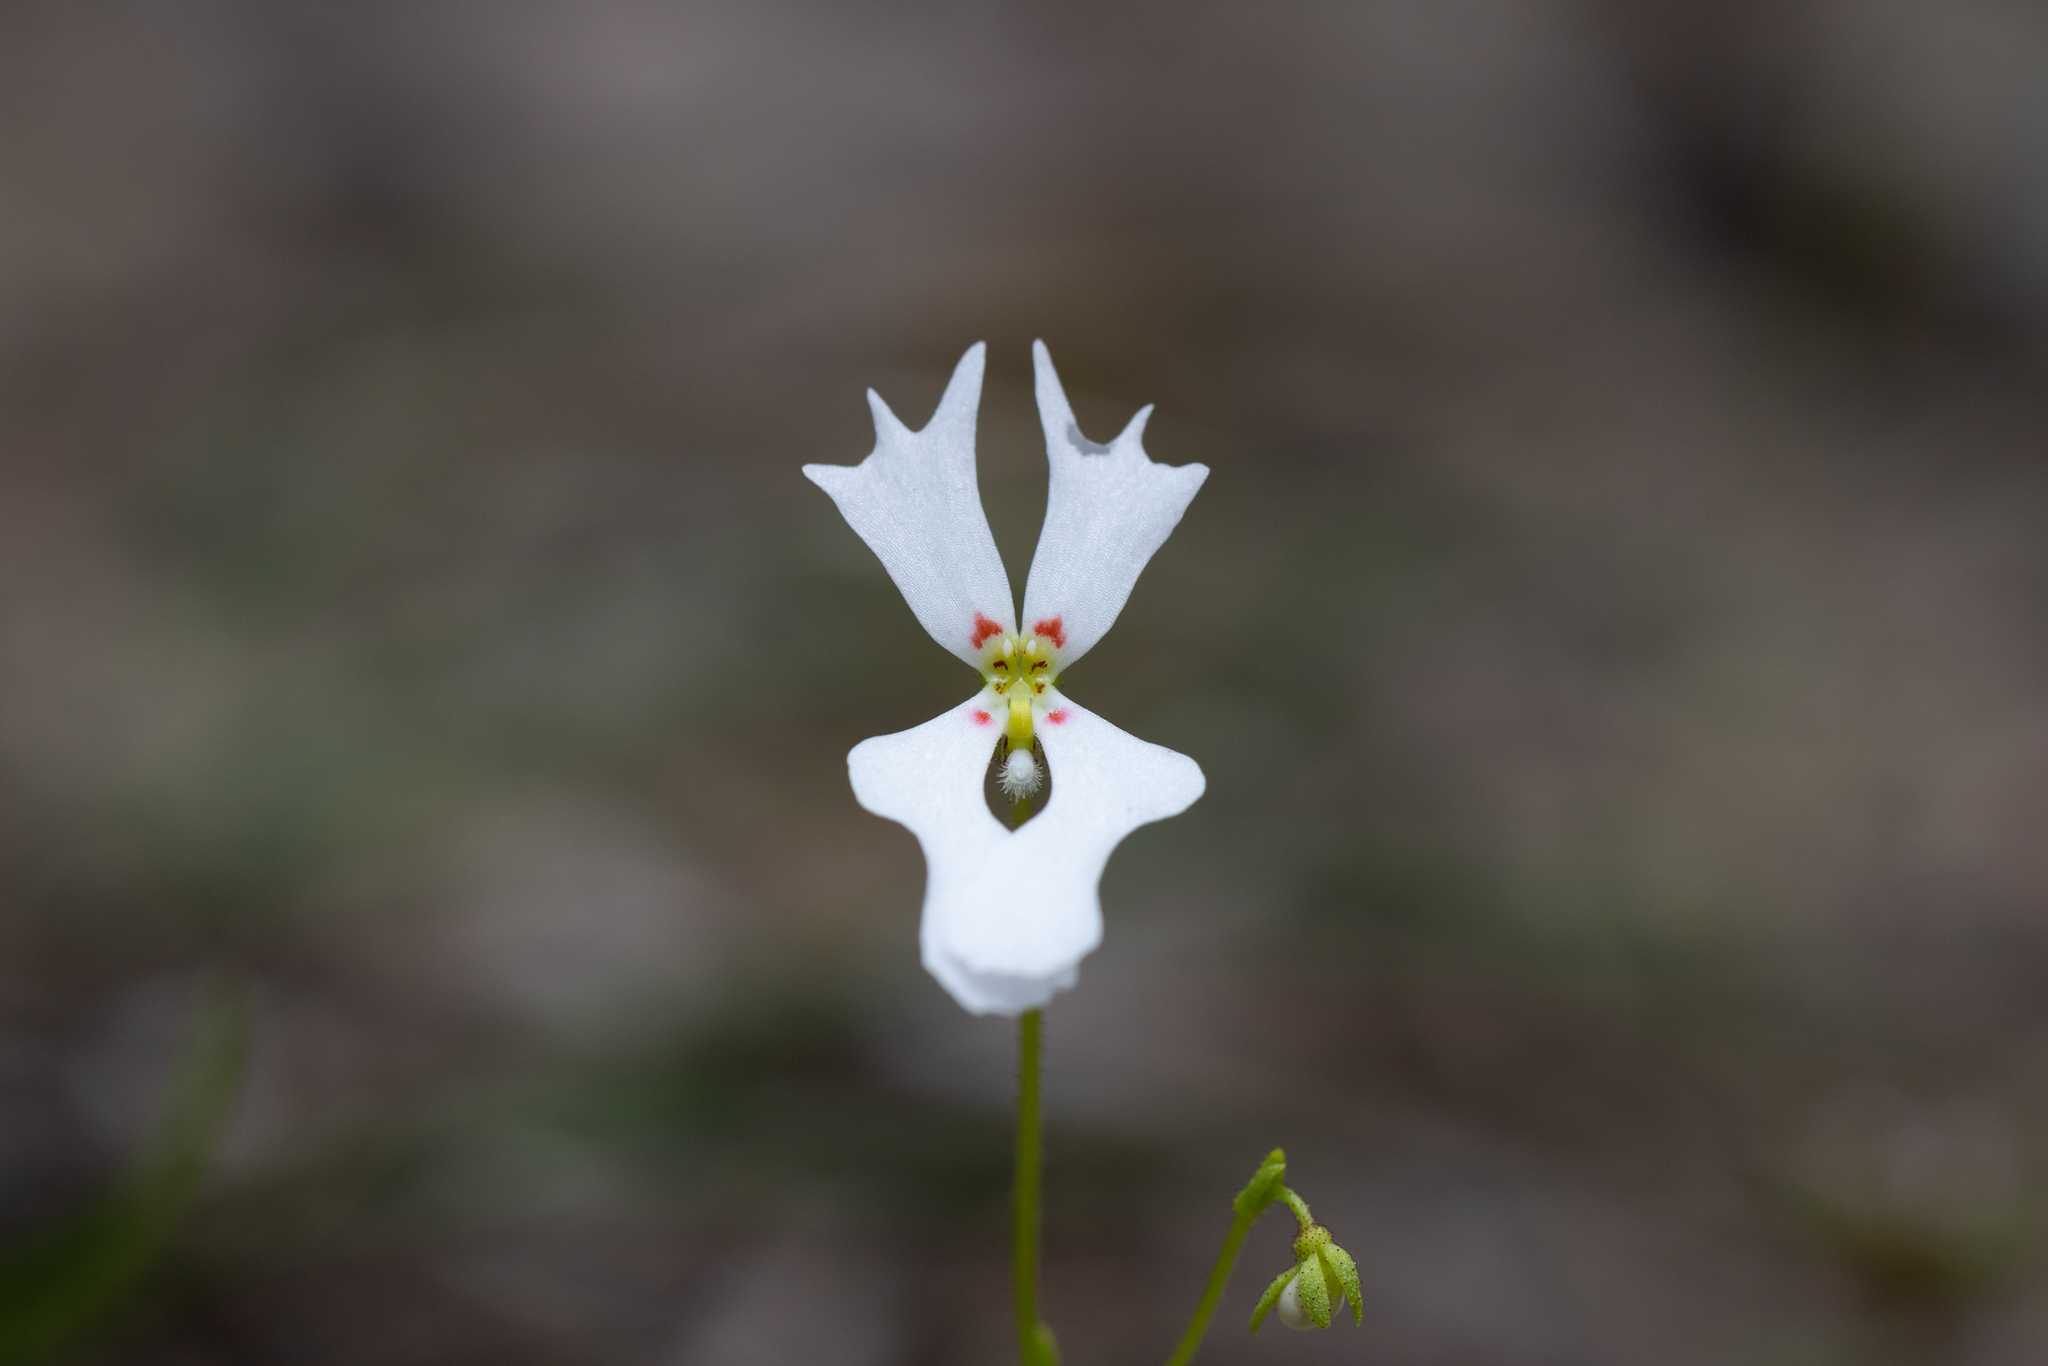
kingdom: Plantae
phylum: Tracheophyta
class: Magnoliopsida
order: Asterales
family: Stylidiaceae
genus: Stylidium
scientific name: Stylidium androsaceum
